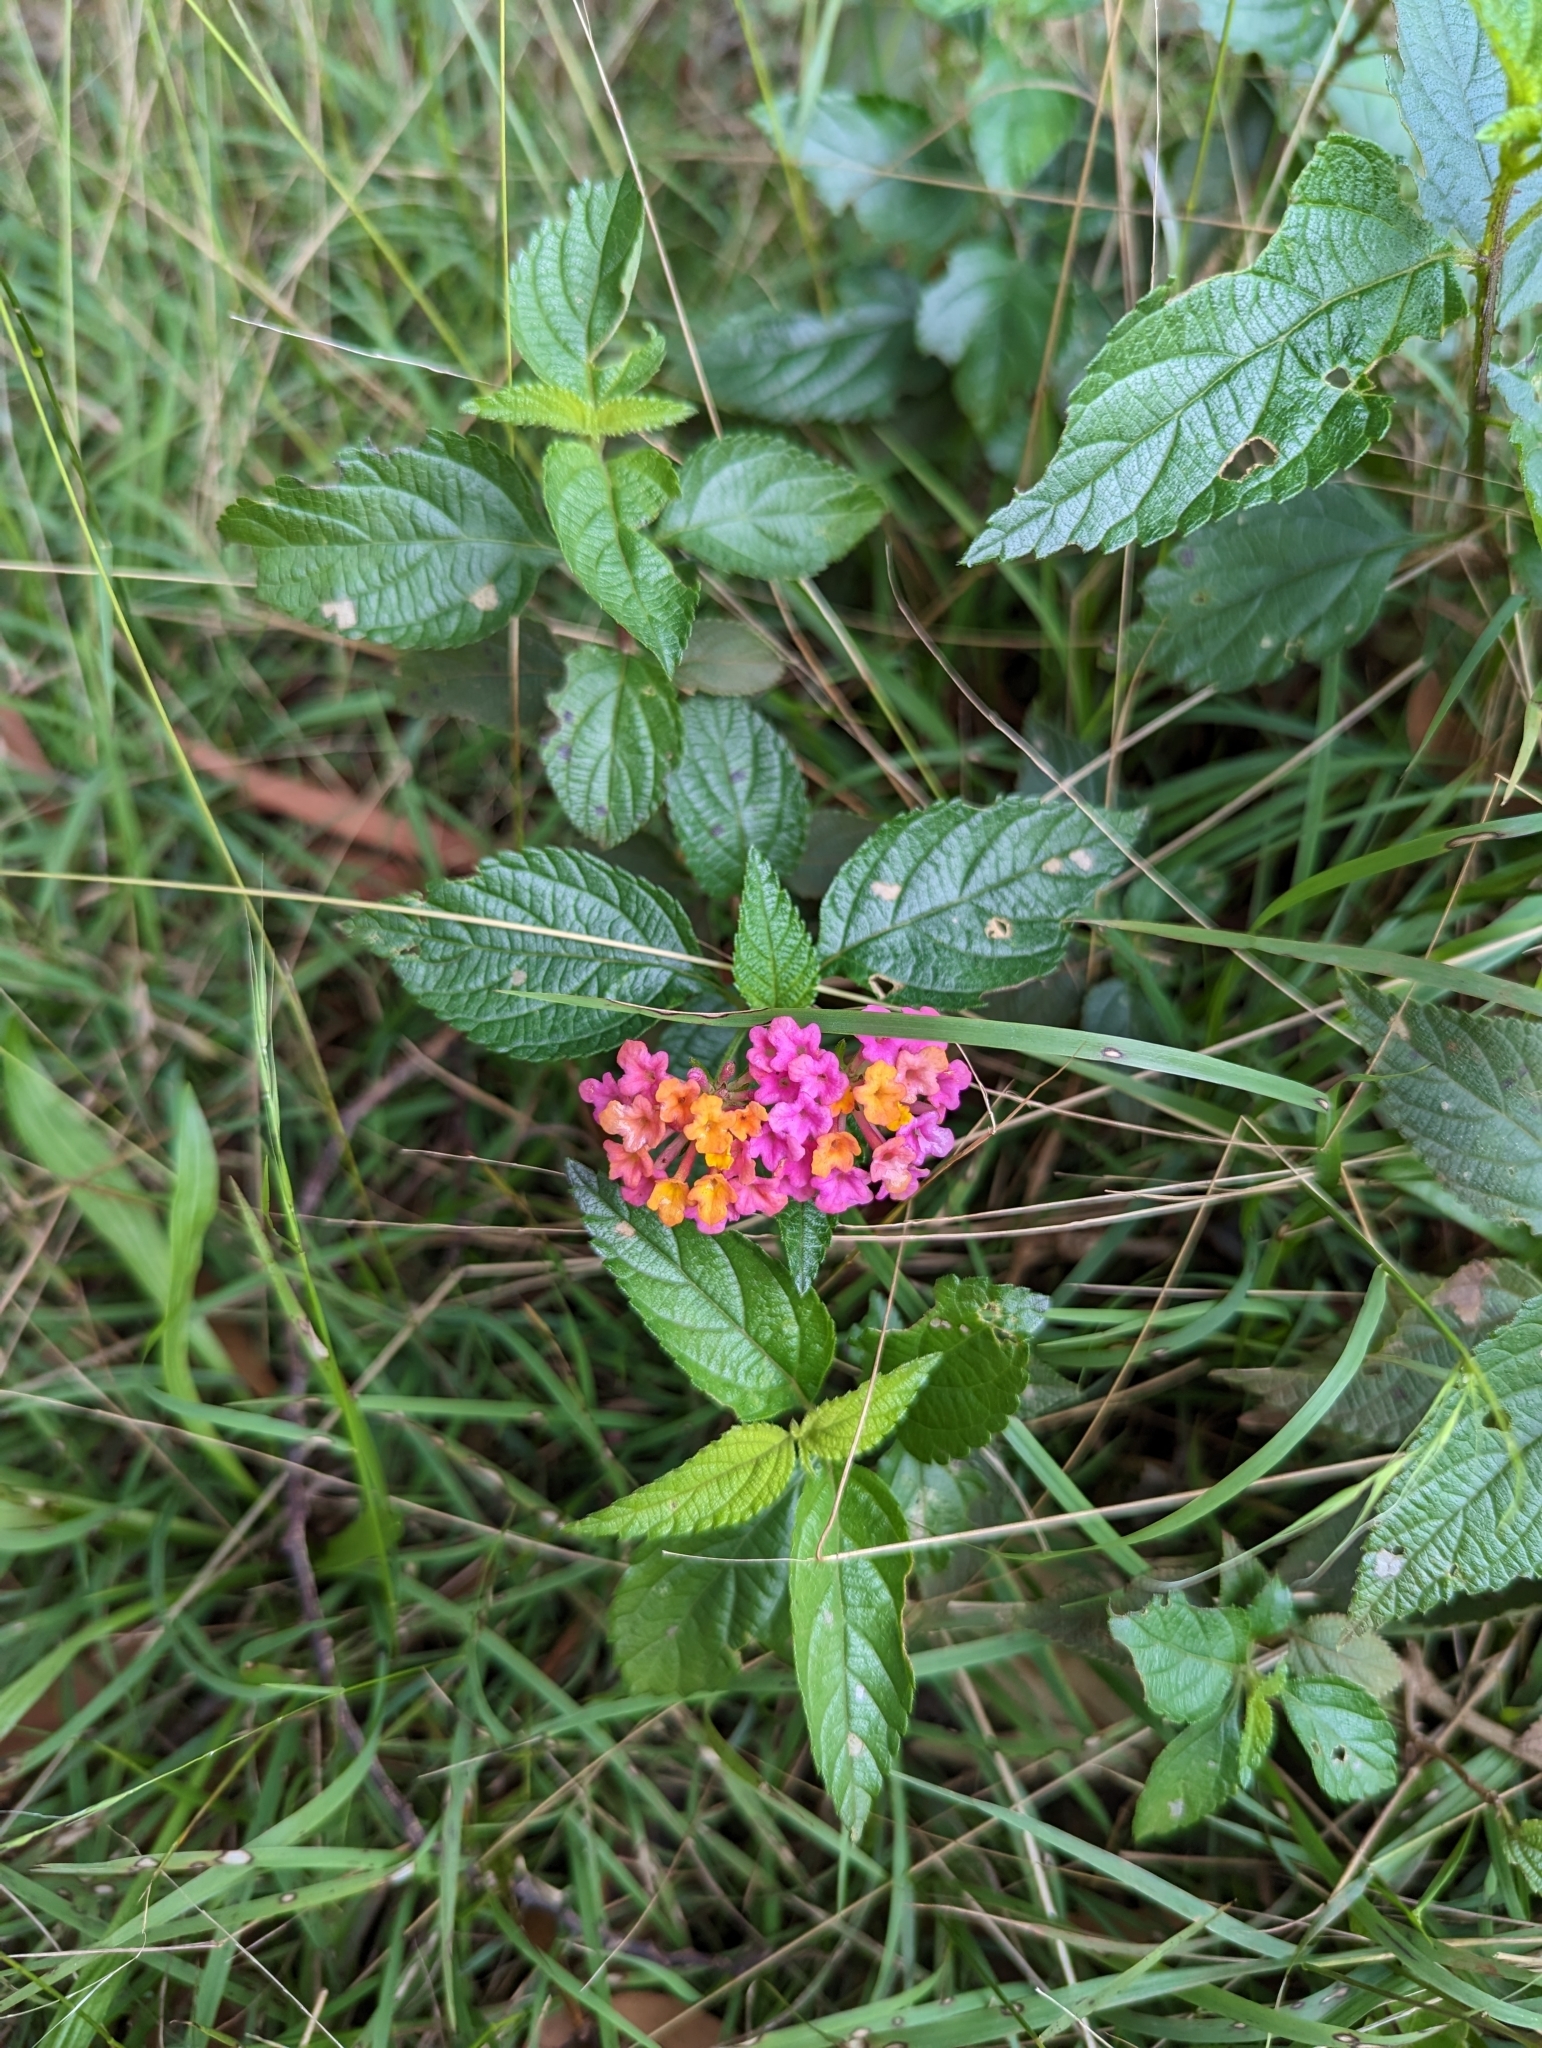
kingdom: Plantae
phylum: Tracheophyta
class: Magnoliopsida
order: Lamiales
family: Verbenaceae
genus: Lantana
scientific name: Lantana camara
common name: Lantana
